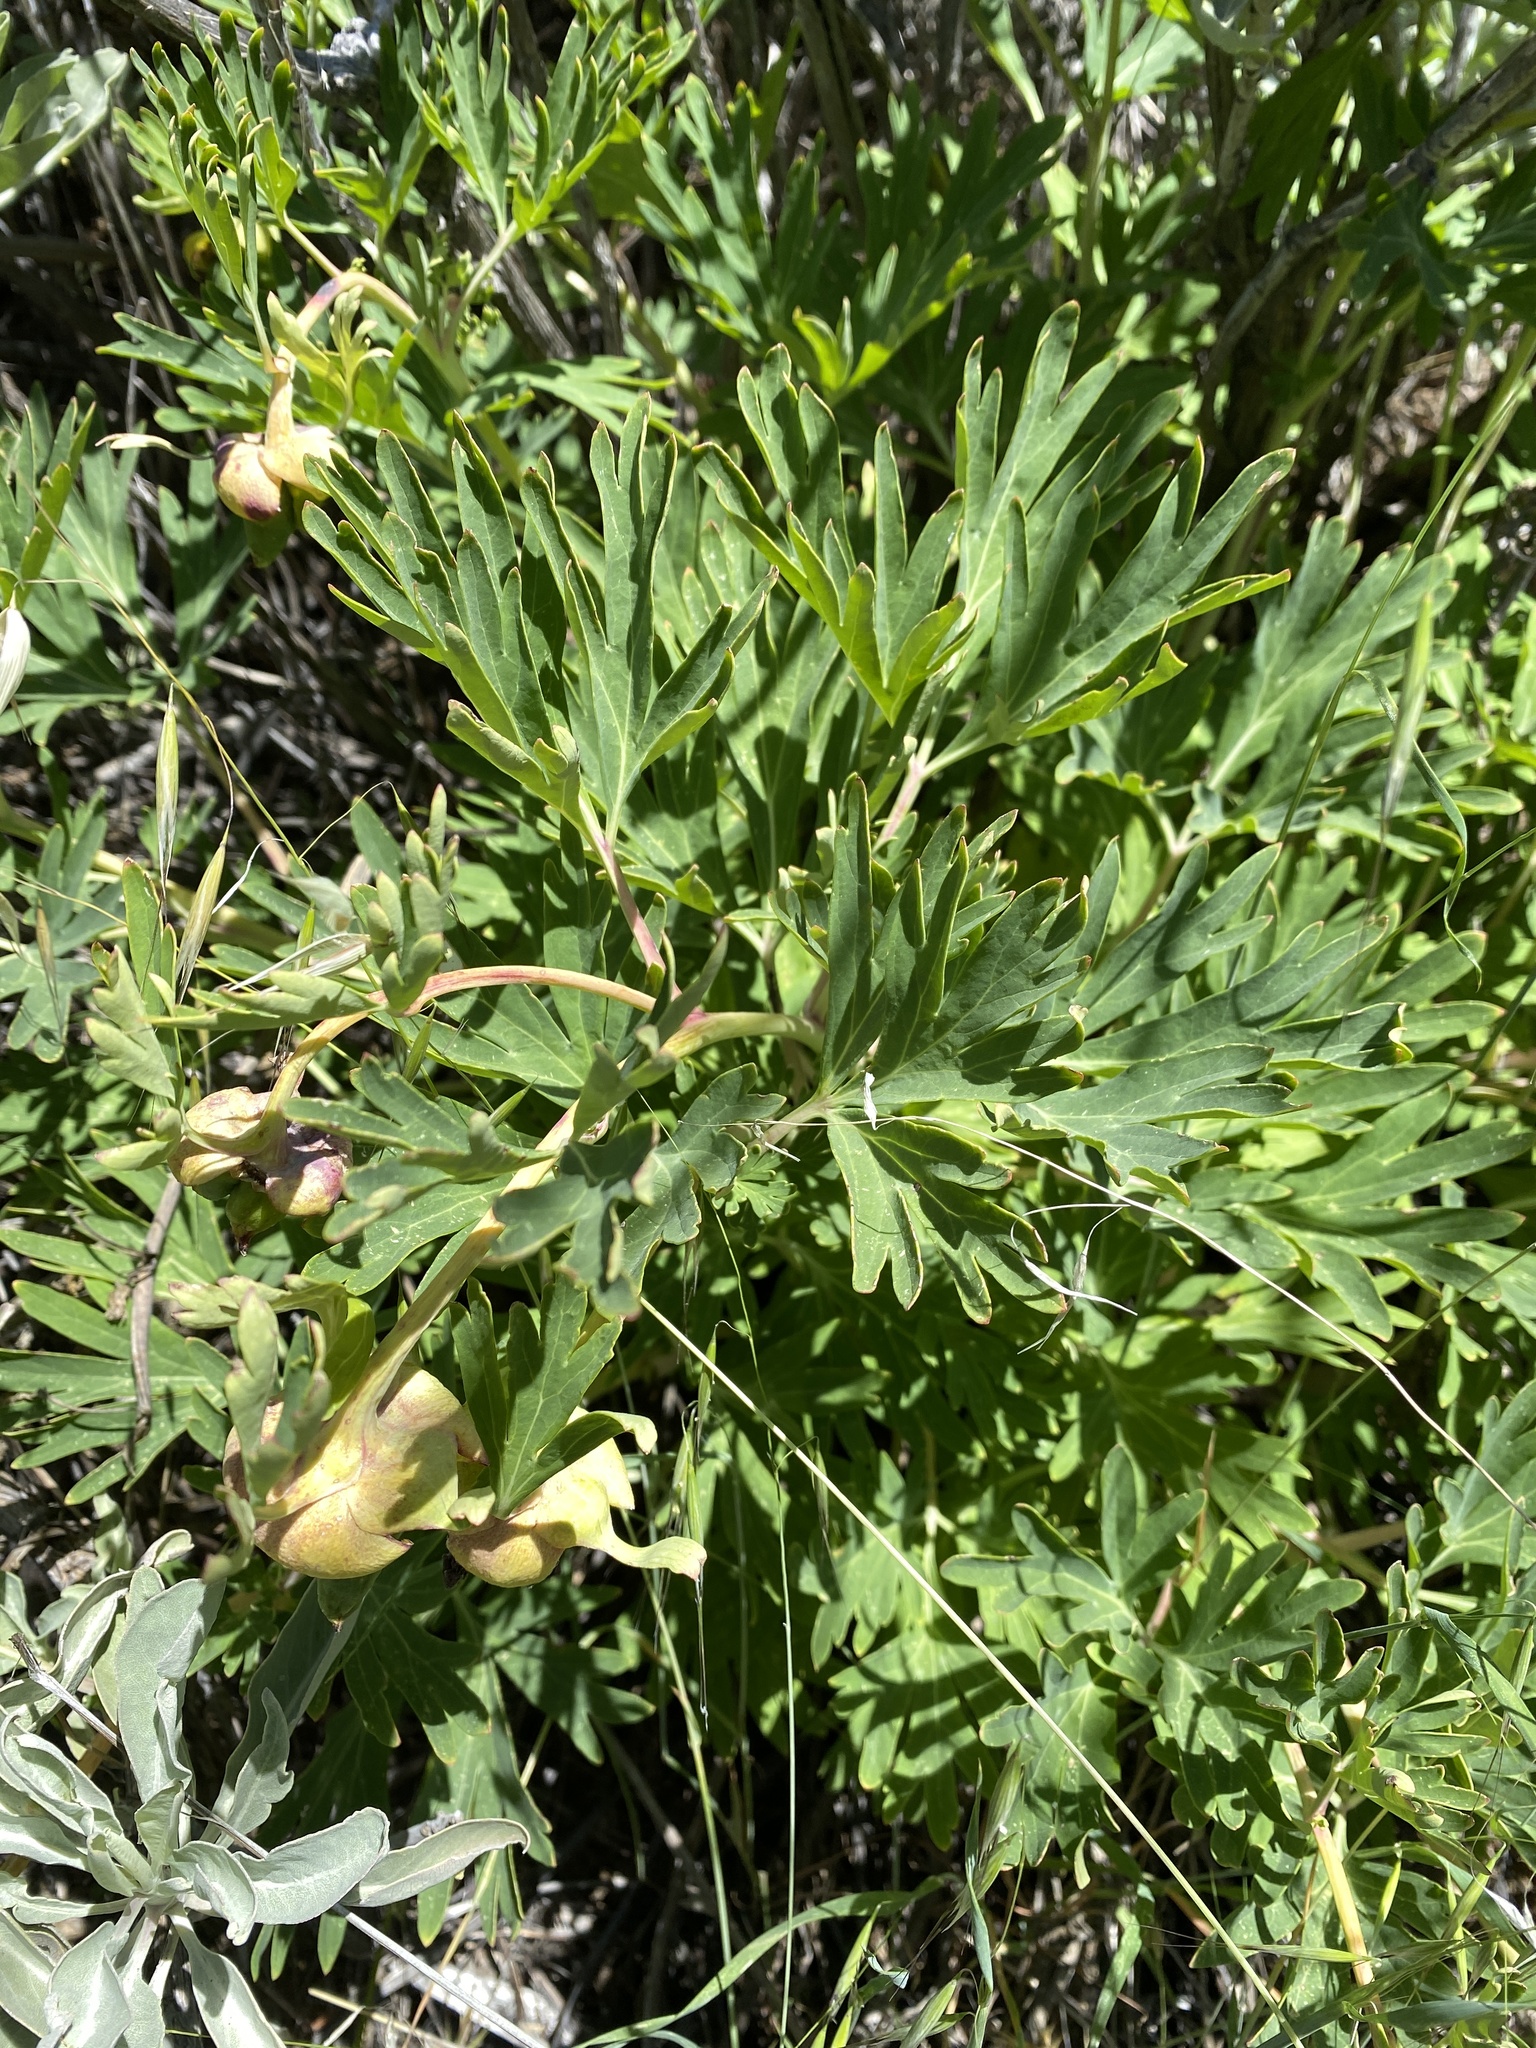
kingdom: Plantae
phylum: Tracheophyta
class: Magnoliopsida
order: Saxifragales
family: Paeoniaceae
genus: Paeonia
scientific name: Paeonia californica
